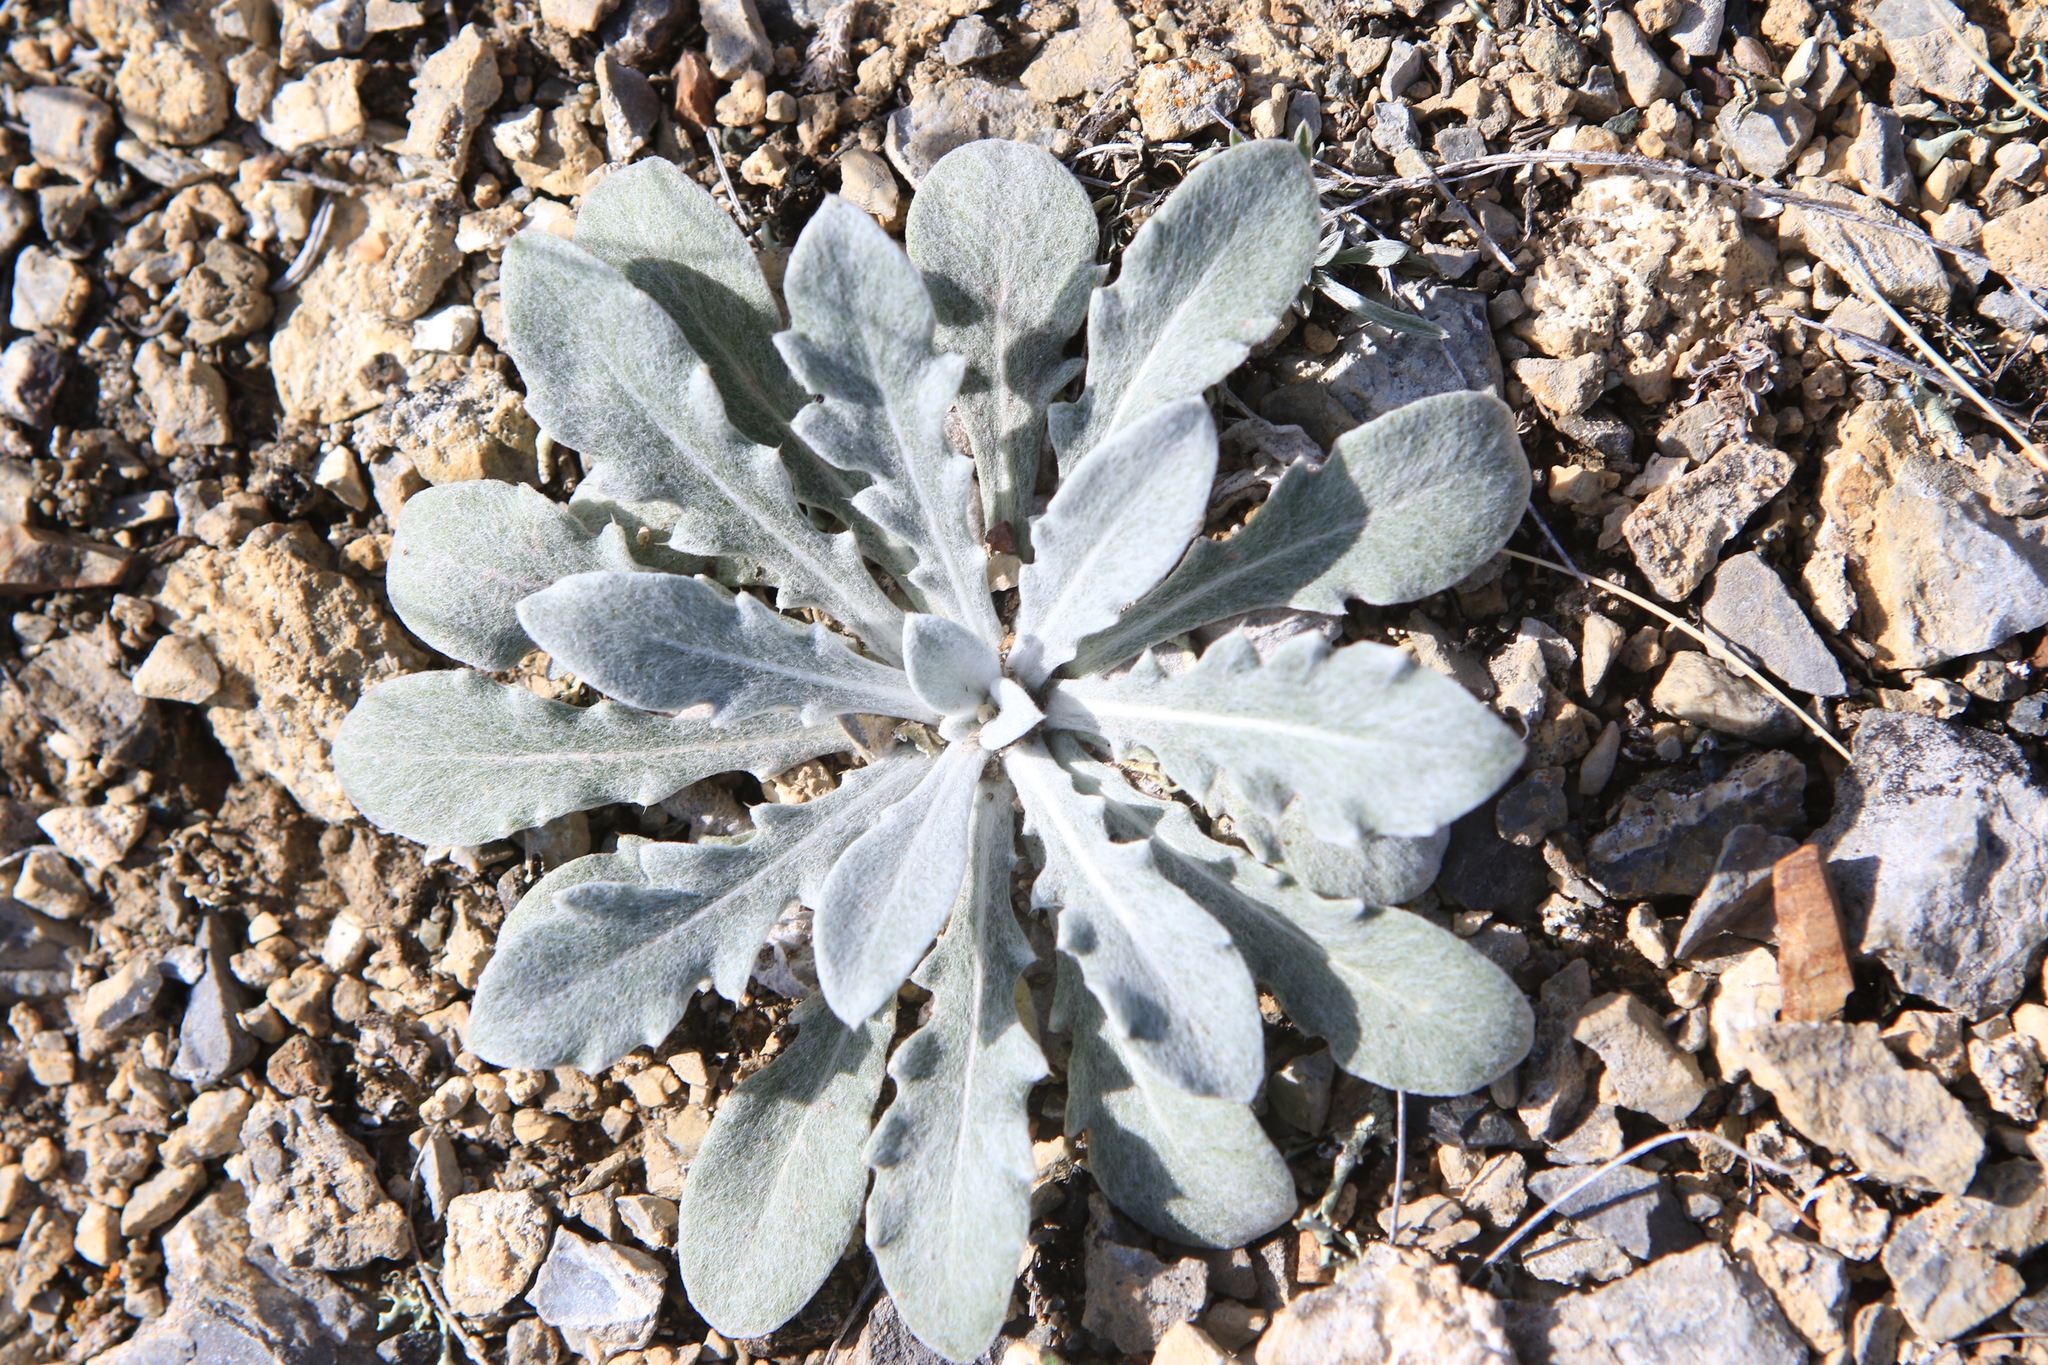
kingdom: Plantae
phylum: Tracheophyta
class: Magnoliopsida
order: Asterales
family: Asteraceae
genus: Echinops
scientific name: Echinops humilis
